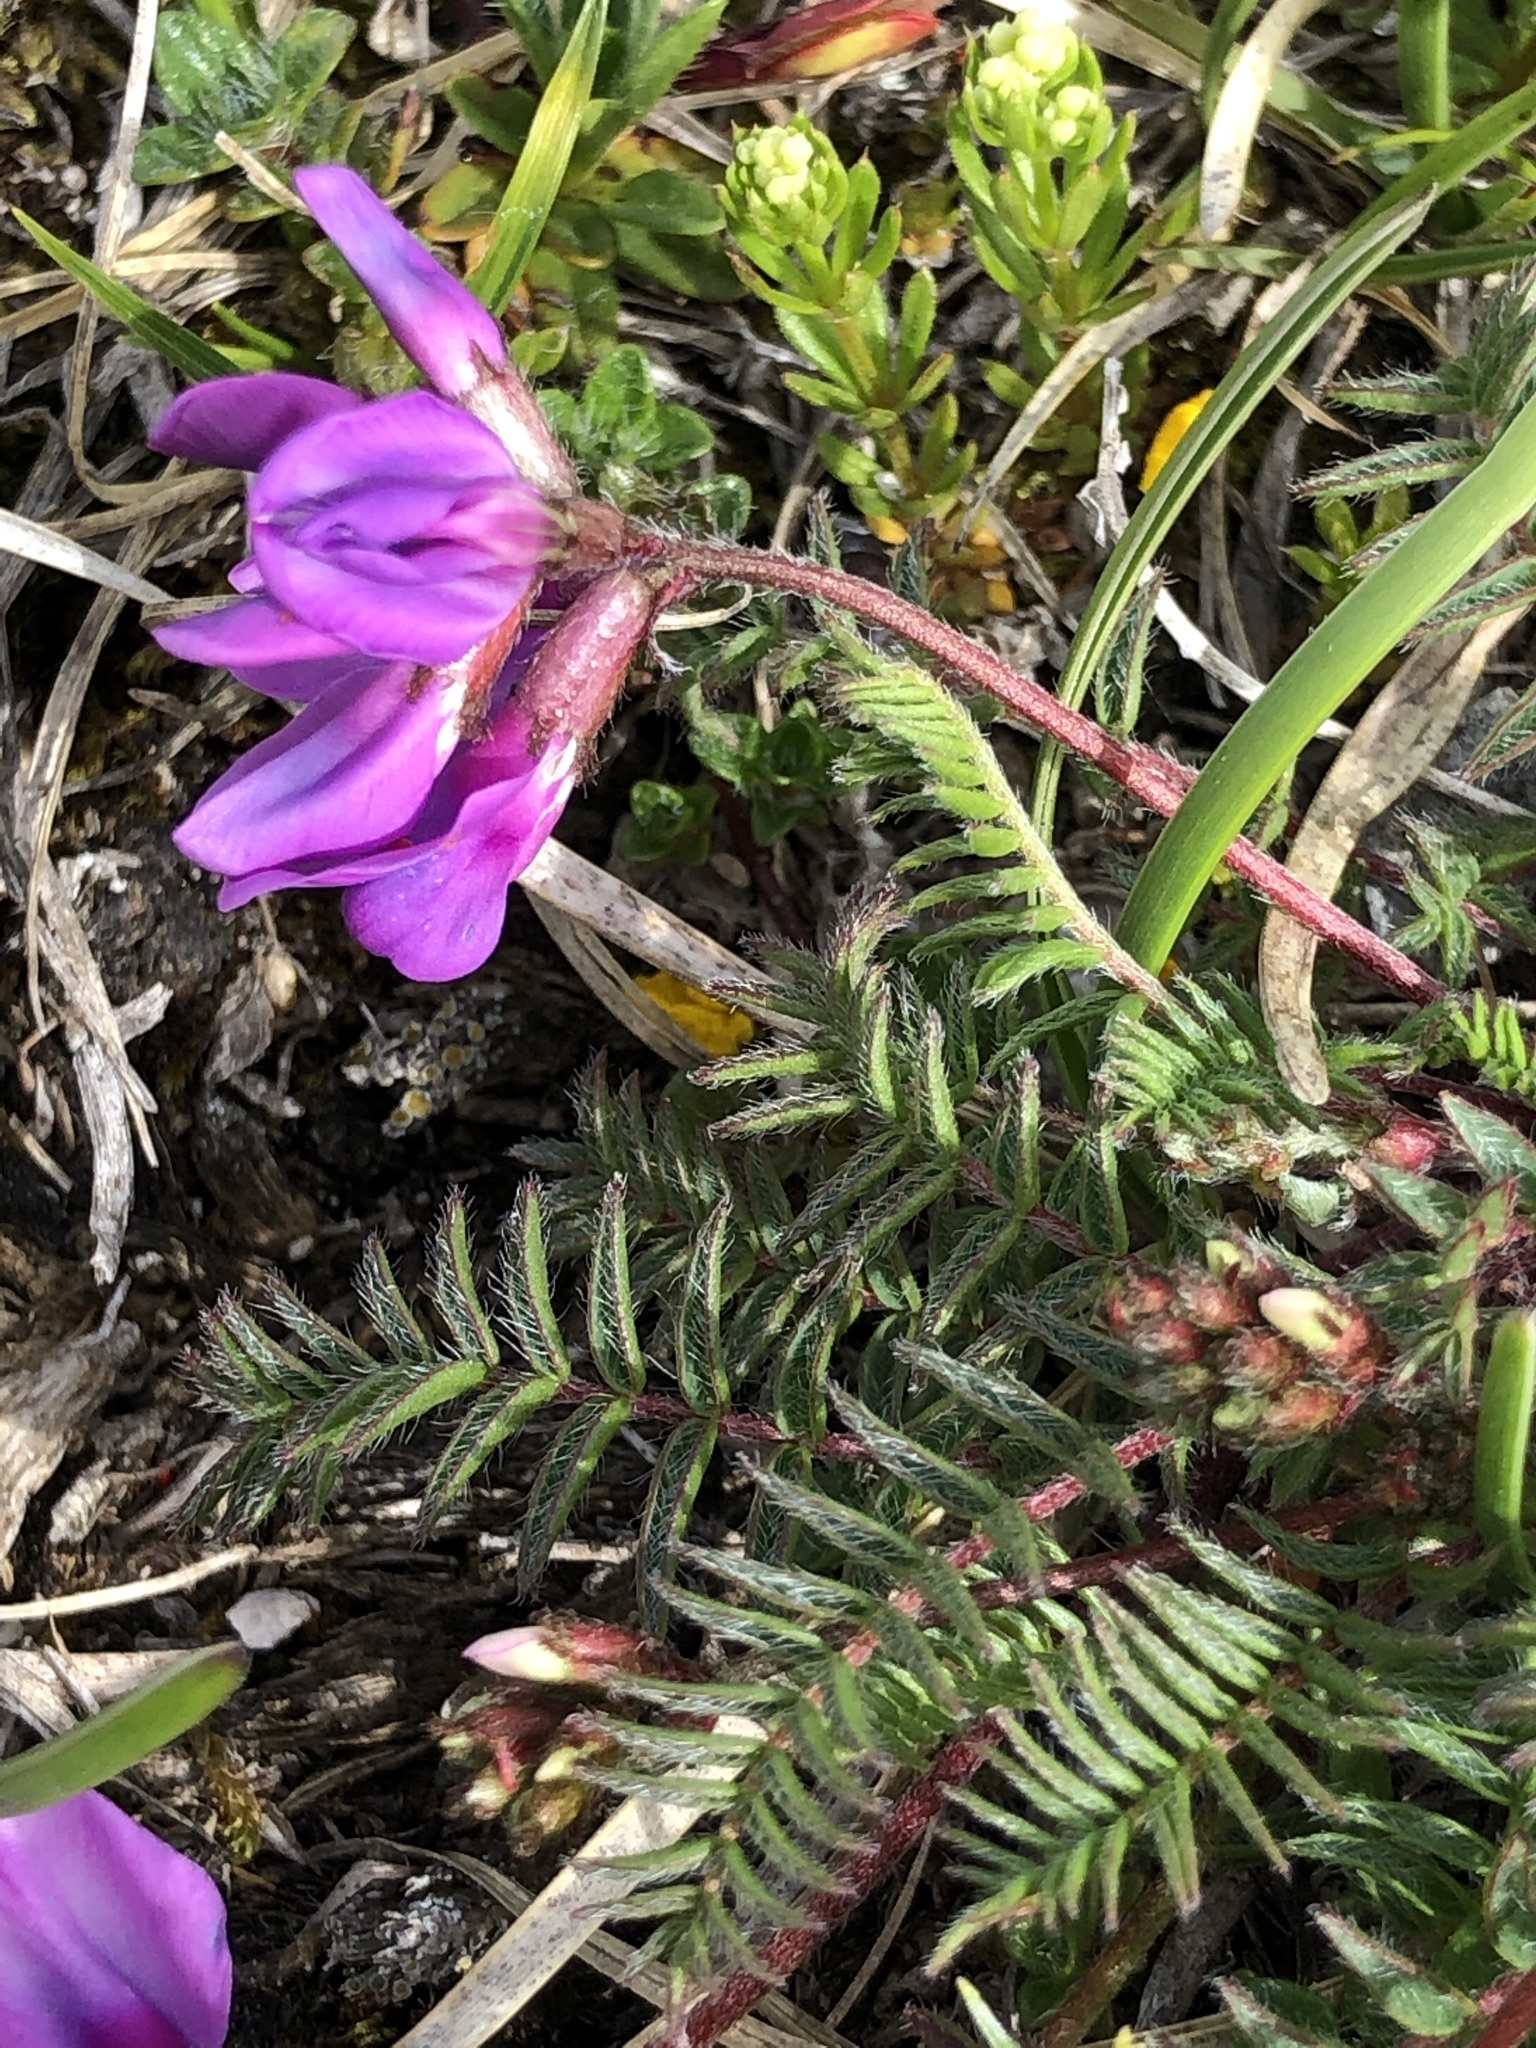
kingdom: Plantae
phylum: Tracheophyta
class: Magnoliopsida
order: Fabales
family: Fabaceae
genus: Oxytropis
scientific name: Oxytropis montana
